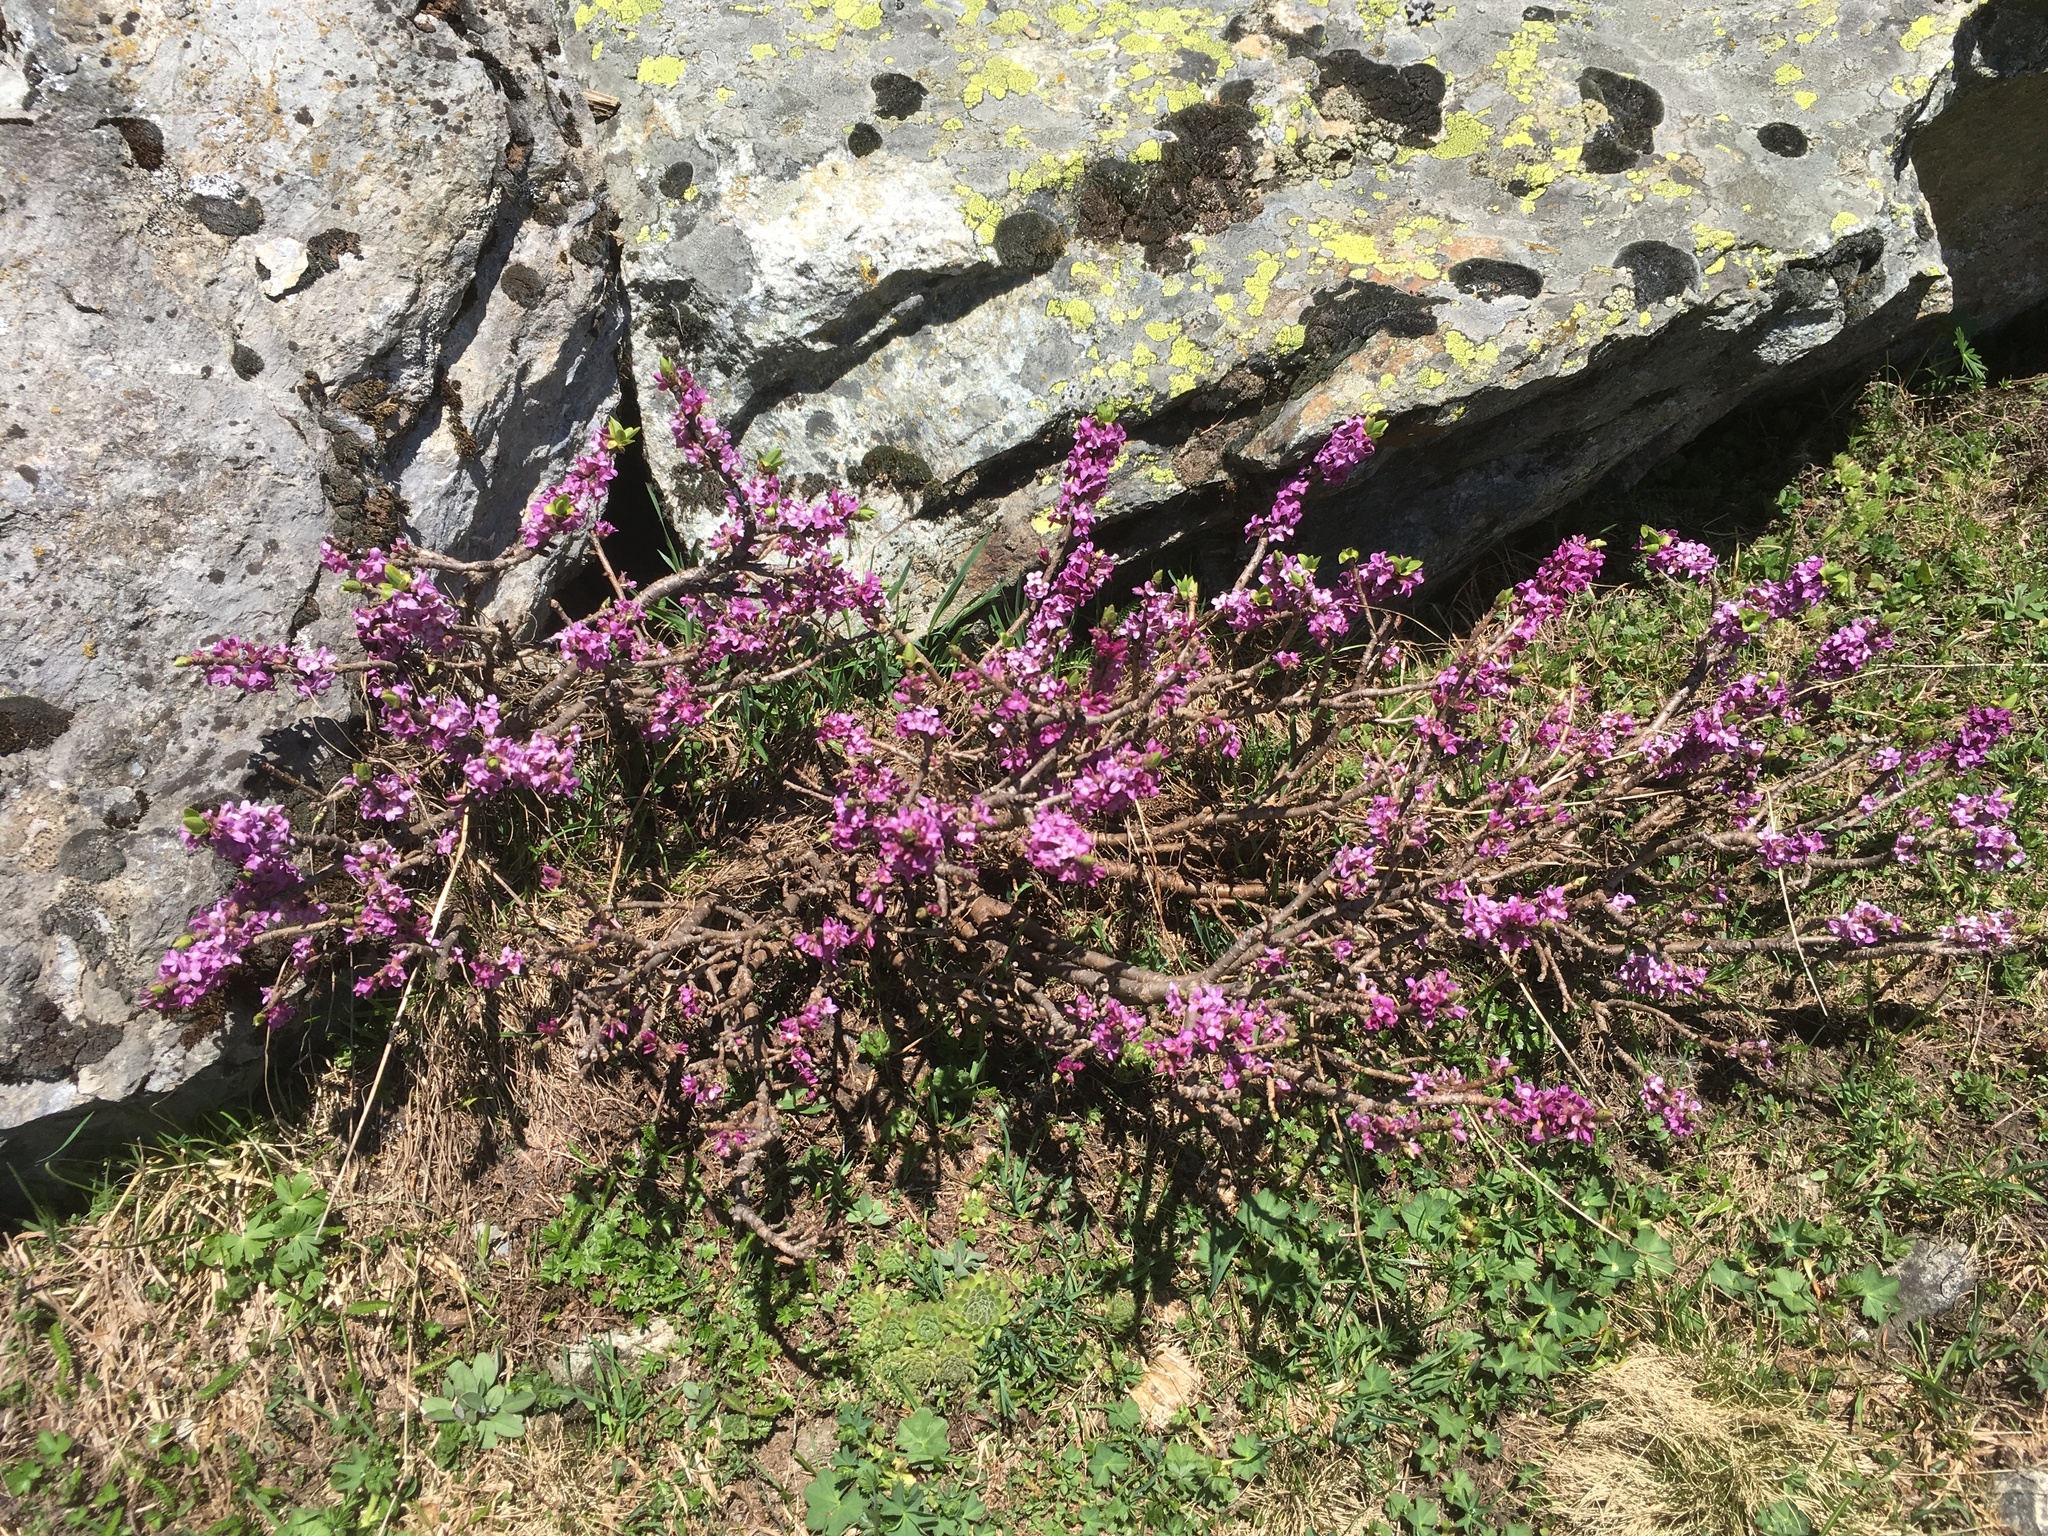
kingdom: Plantae
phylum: Tracheophyta
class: Magnoliopsida
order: Malvales
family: Thymelaeaceae
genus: Daphne
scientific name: Daphne mezereum
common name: Mezereon
